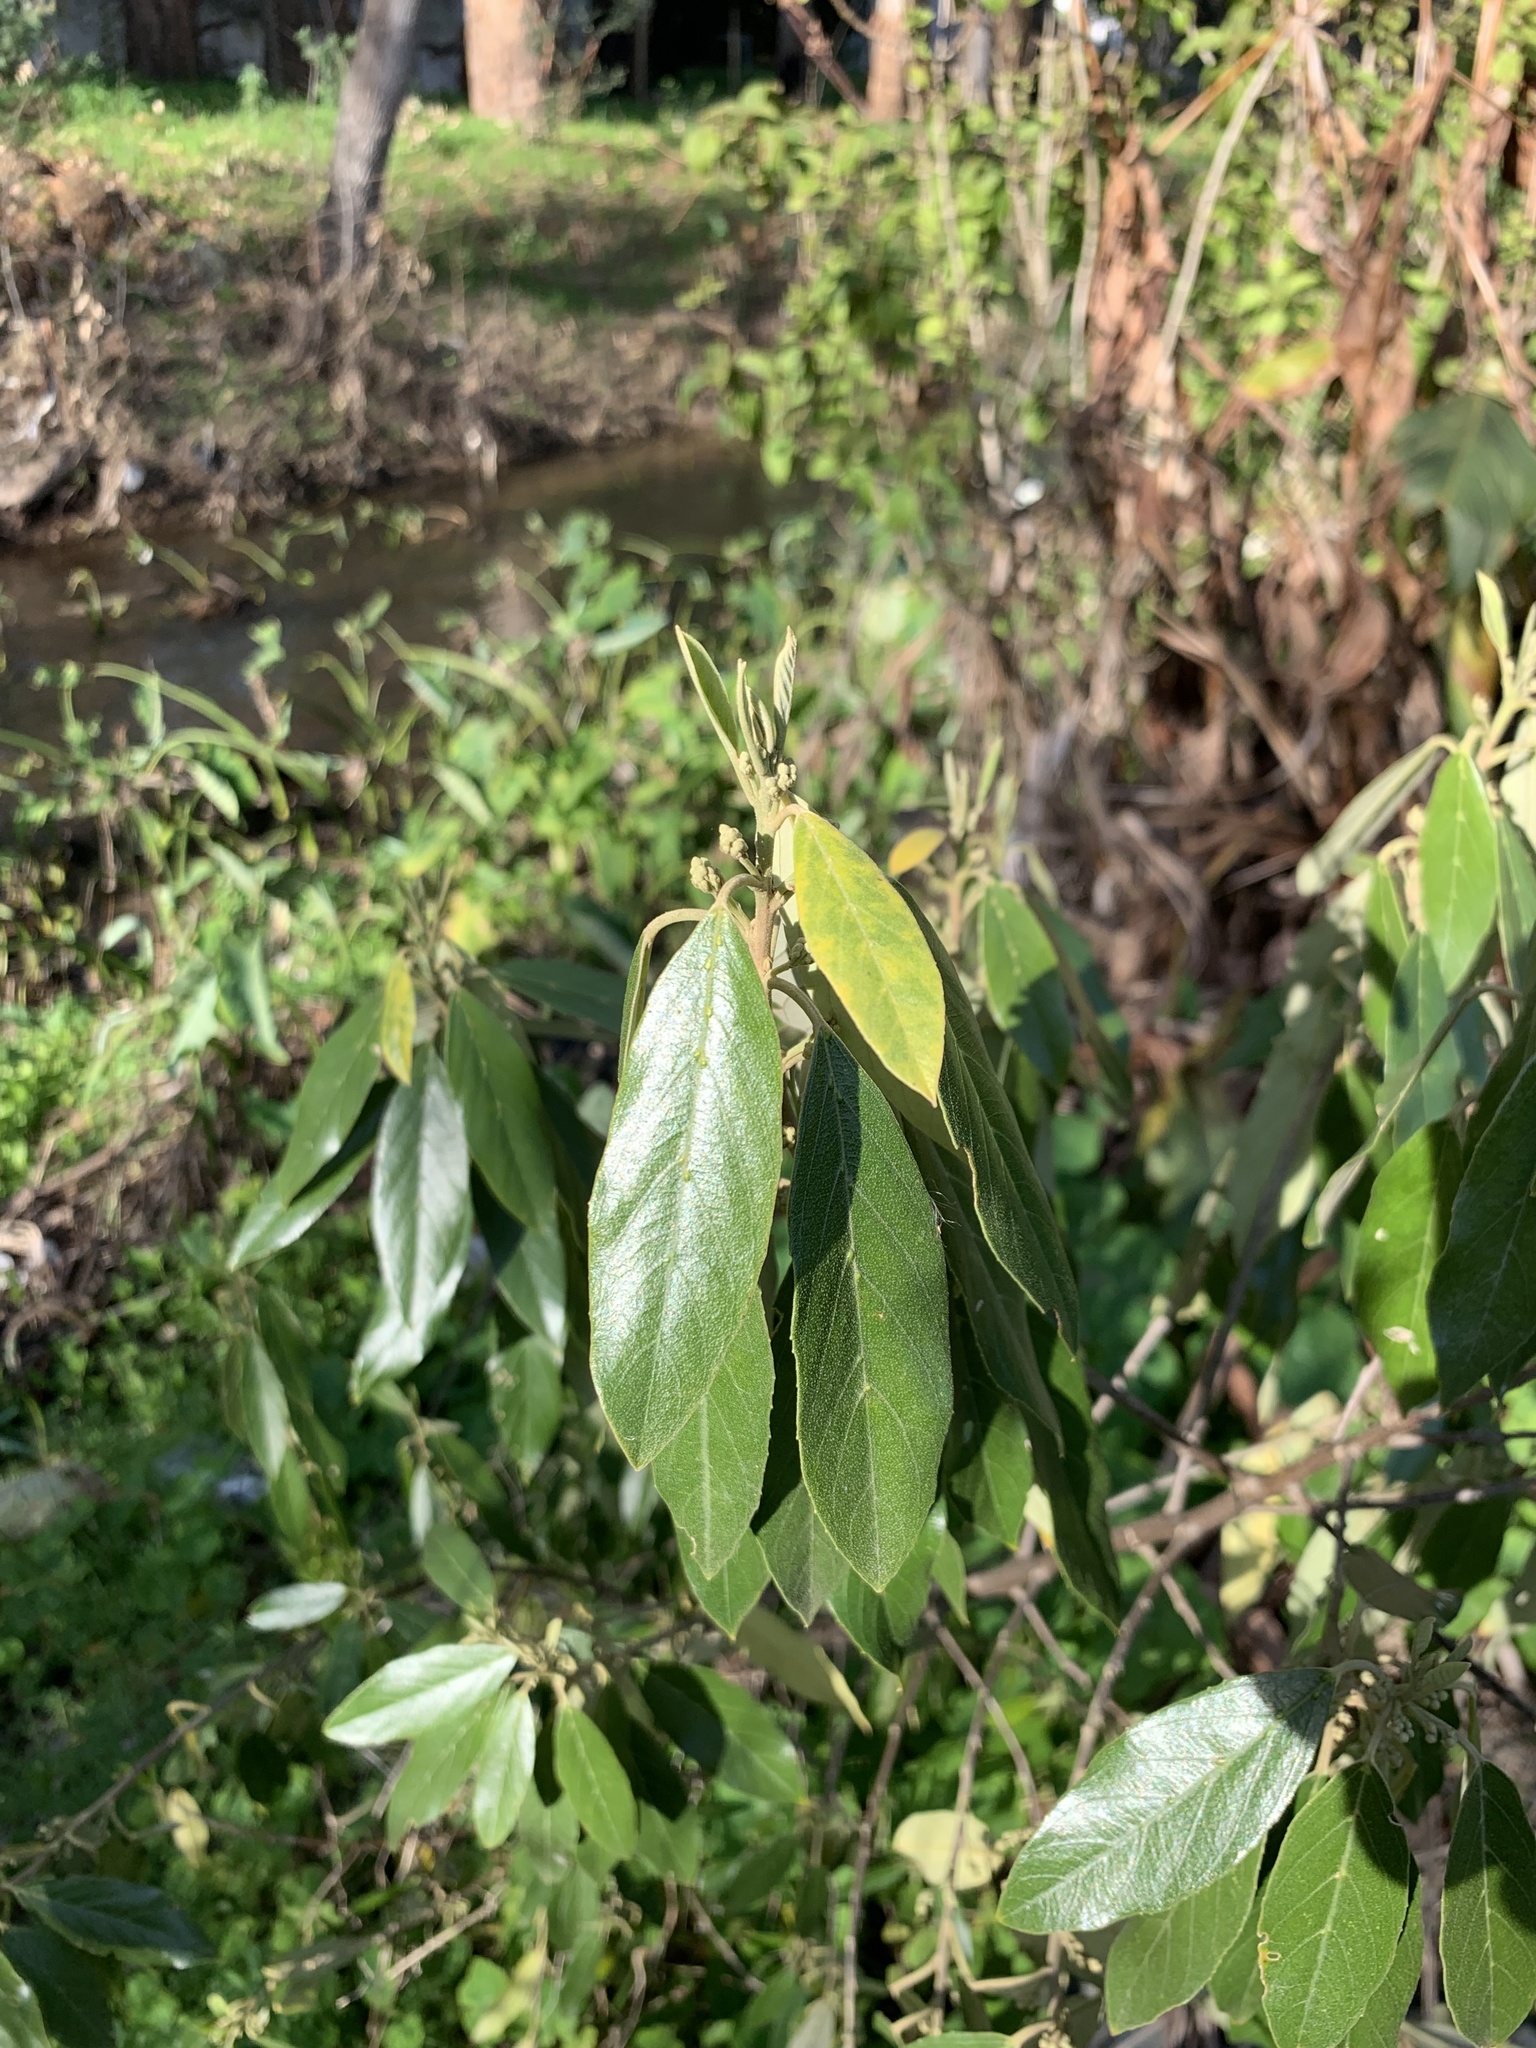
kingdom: Plantae
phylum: Tracheophyta
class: Magnoliopsida
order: Malpighiales
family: Achariaceae
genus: Kiggelaria
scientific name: Kiggelaria africana
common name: Wild peach
